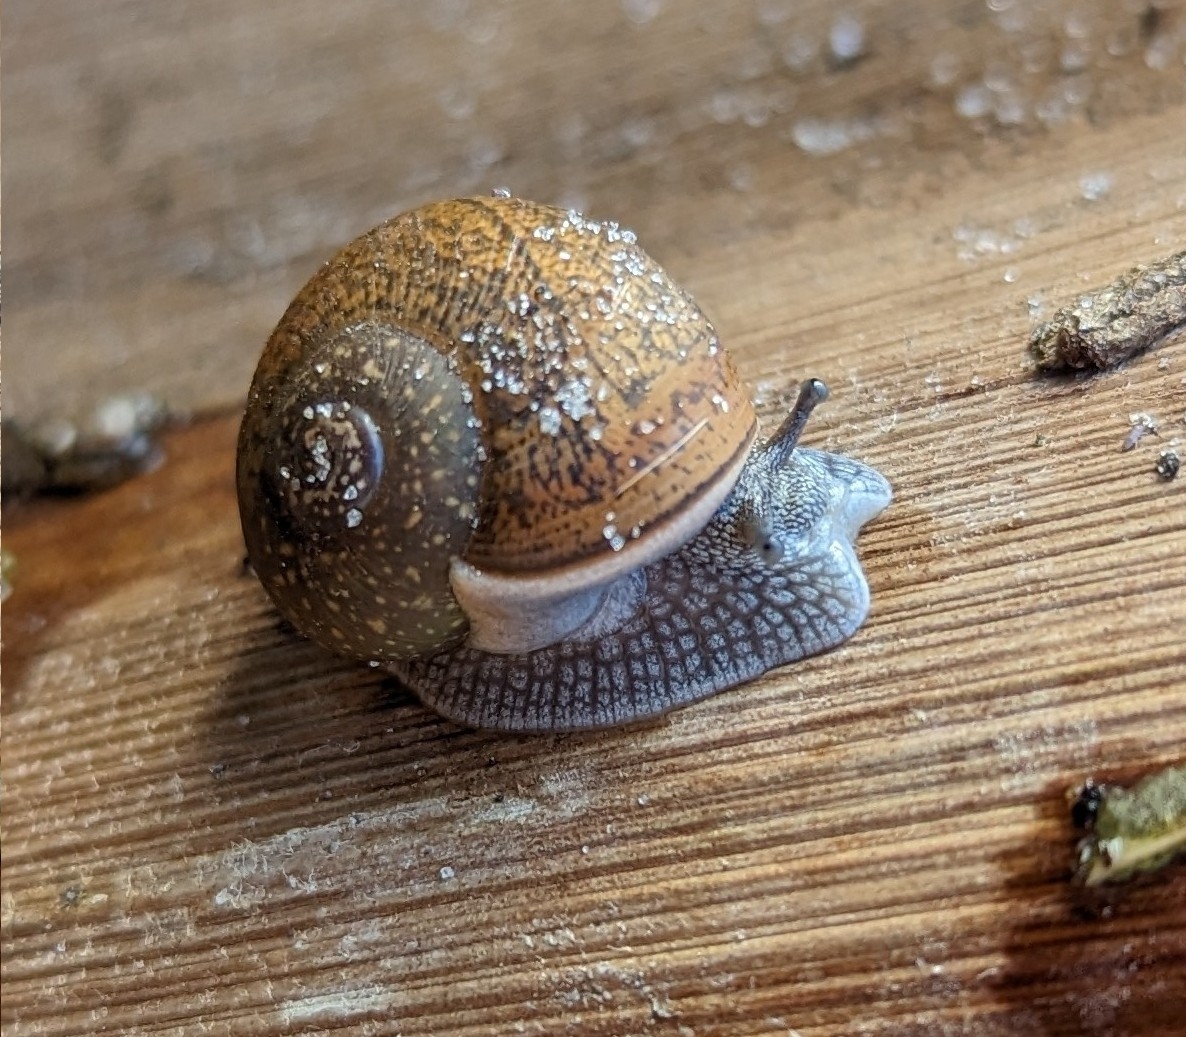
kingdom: Animalia
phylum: Mollusca
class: Gastropoda
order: Stylommatophora
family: Zachrysiidae
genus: Zachrysia
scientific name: Zachrysia provisoria
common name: Garden zachrysia
